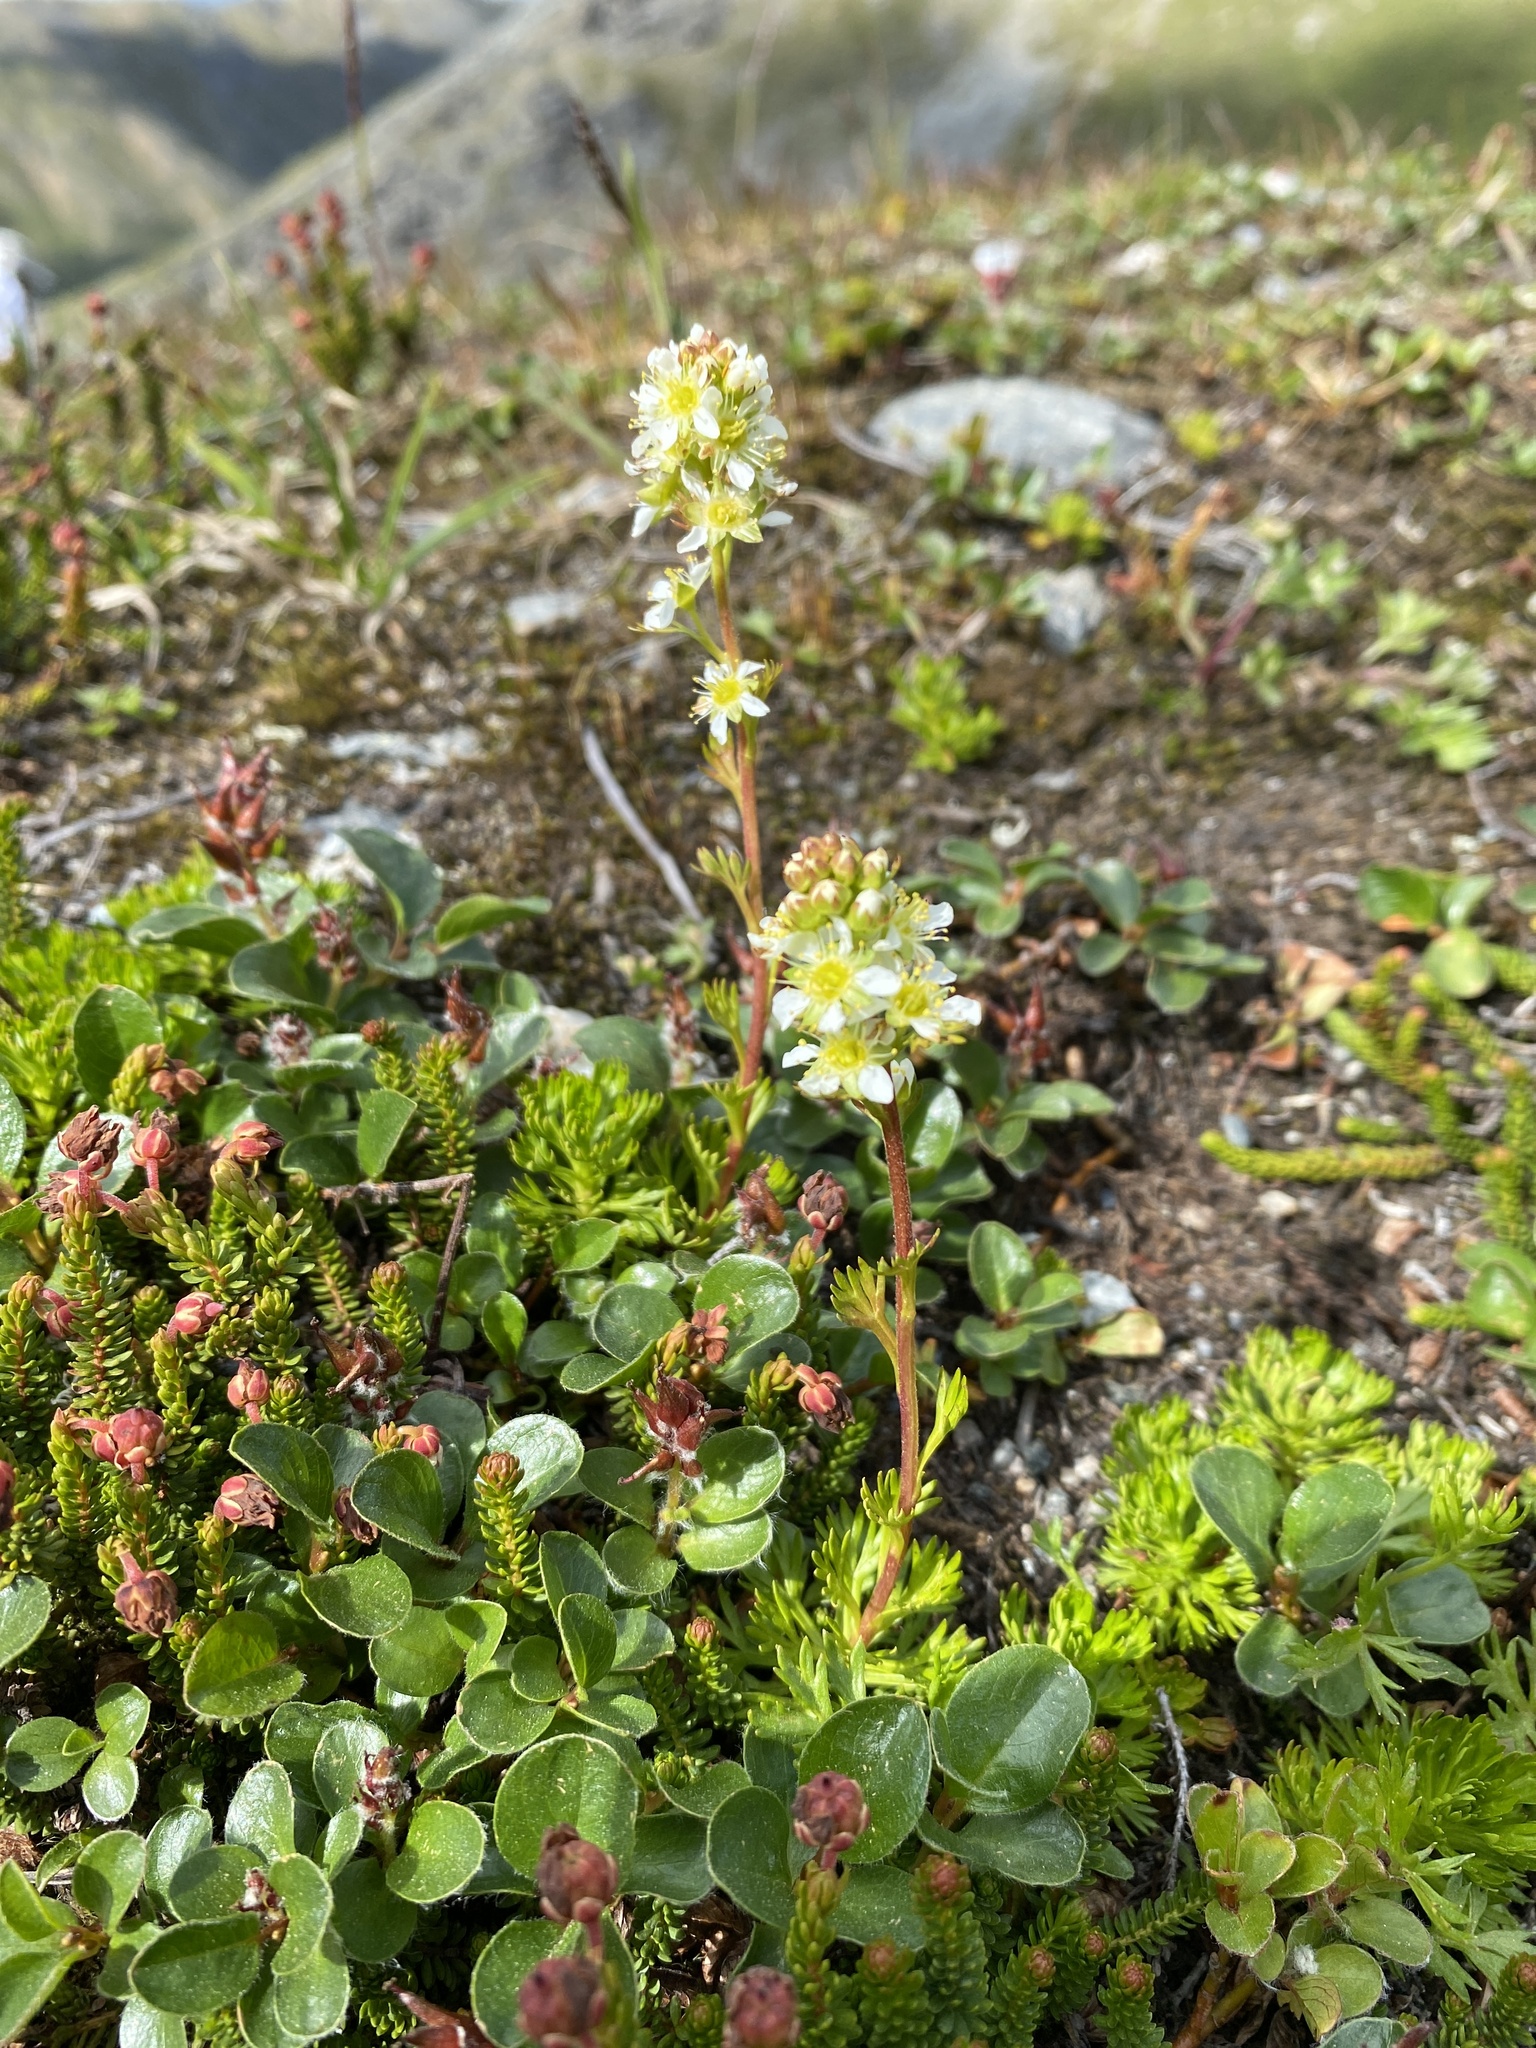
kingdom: Plantae
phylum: Tracheophyta
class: Magnoliopsida
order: Rosales
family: Rosaceae
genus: Luetkea
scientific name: Luetkea pectinata
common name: Partridgefoot
